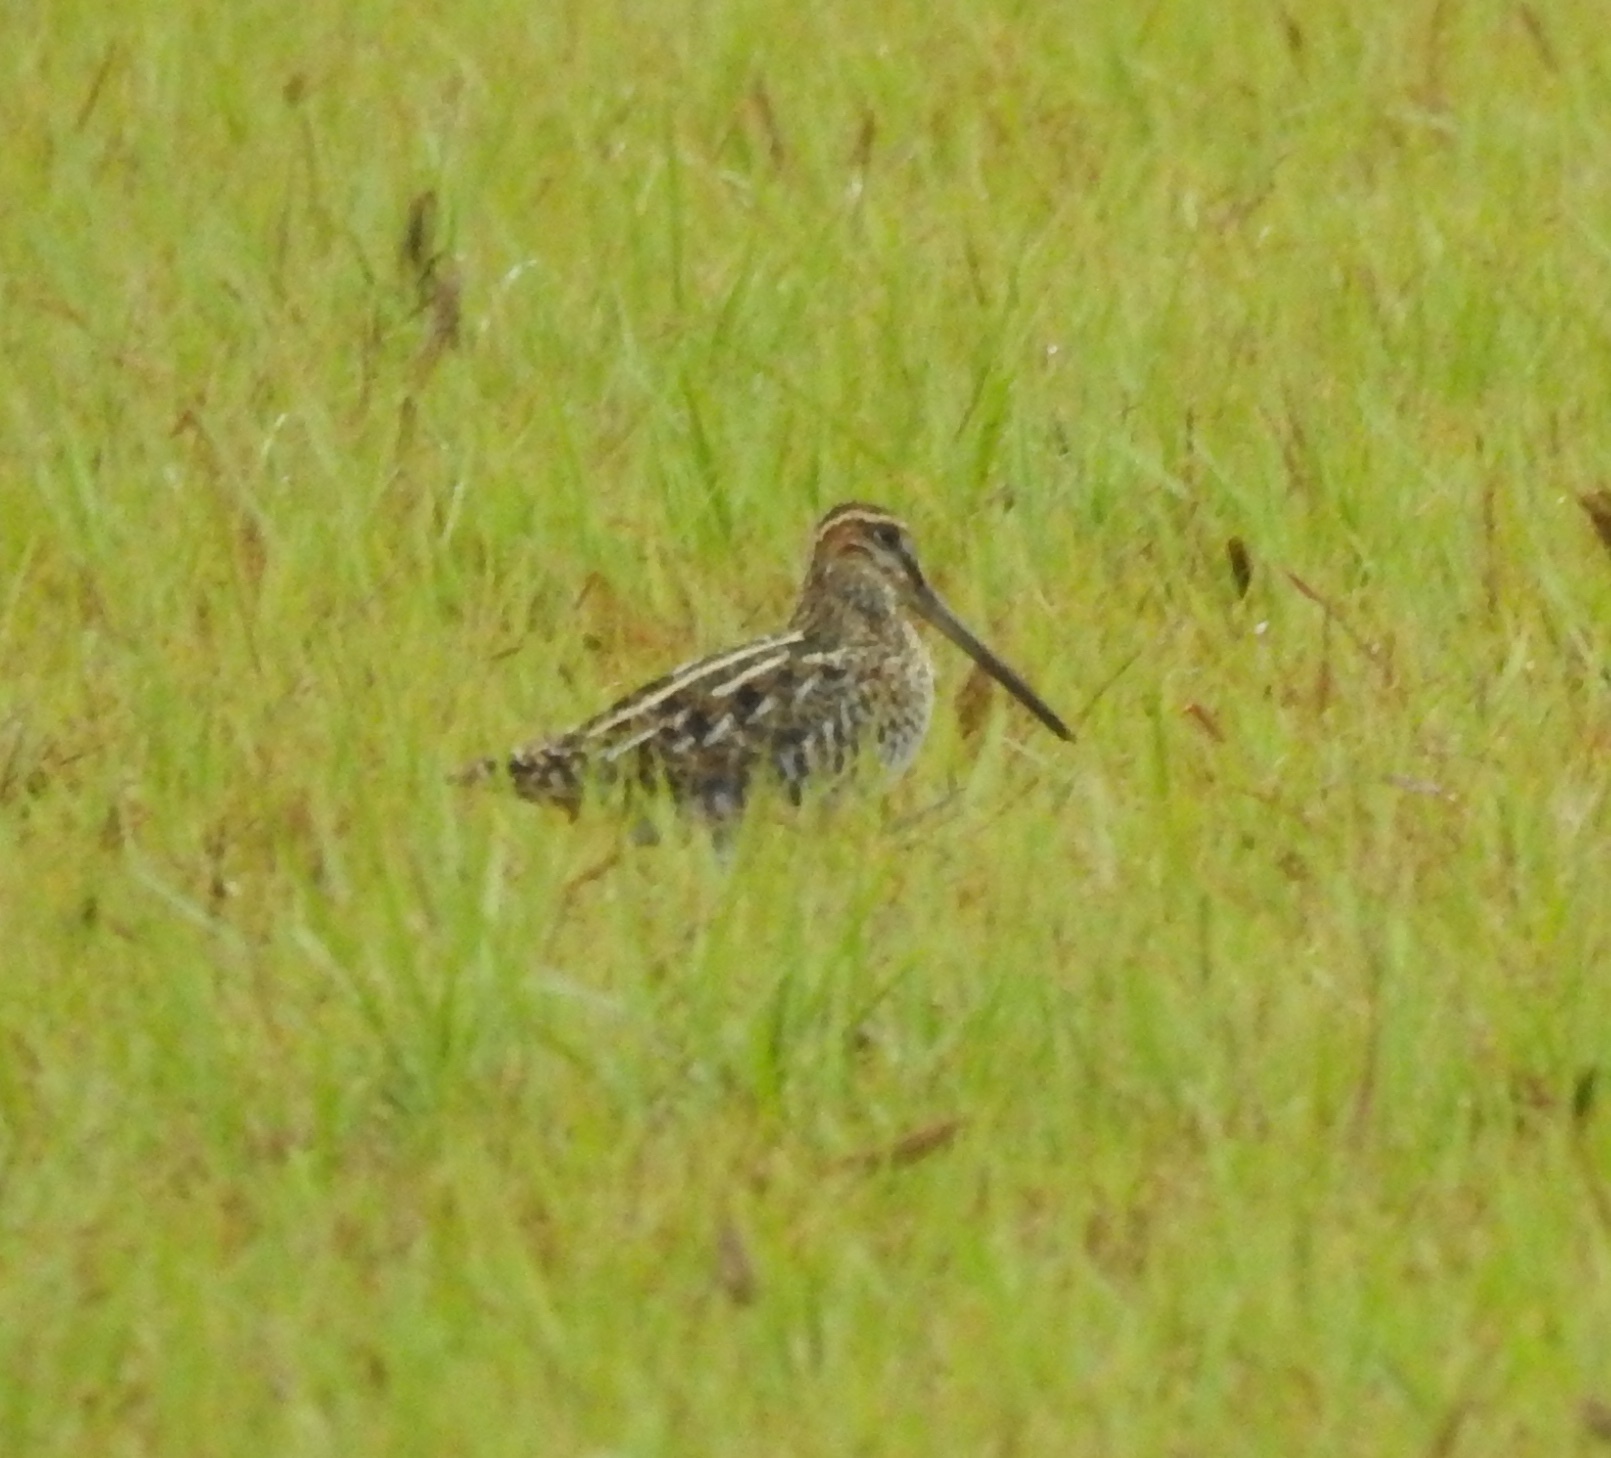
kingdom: Animalia
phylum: Chordata
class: Aves
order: Charadriiformes
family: Scolopacidae
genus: Gallinago
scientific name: Gallinago delicata
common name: Wilson's snipe
